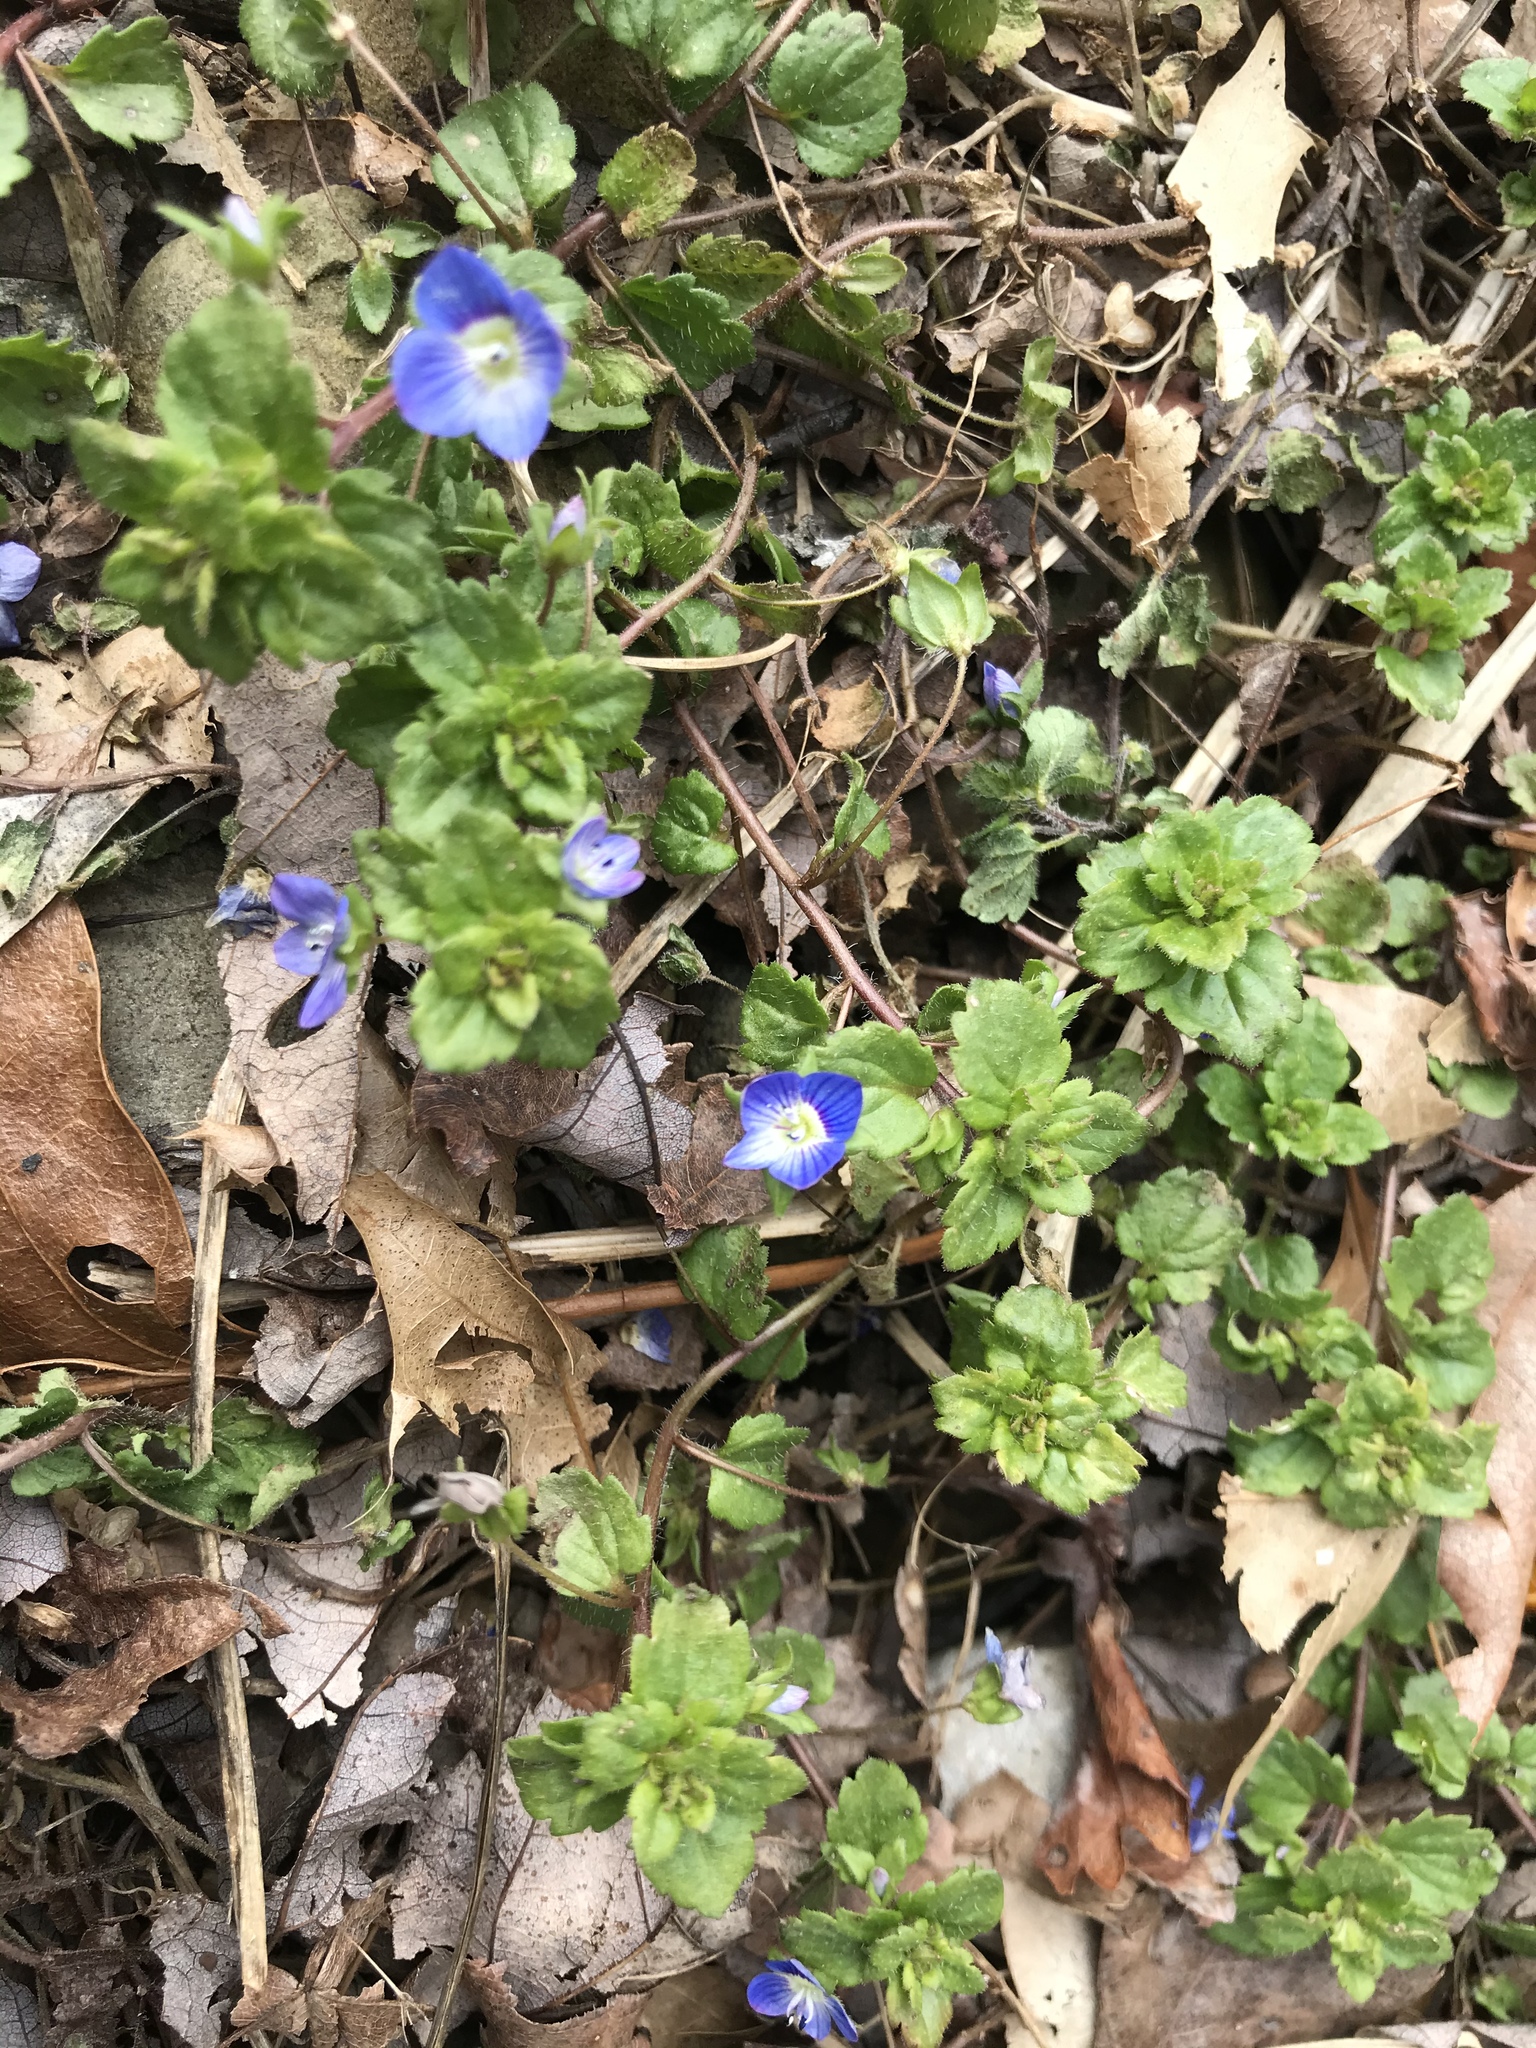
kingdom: Plantae
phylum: Tracheophyta
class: Magnoliopsida
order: Lamiales
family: Plantaginaceae
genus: Veronica
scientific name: Veronica persica
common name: Common field-speedwell
